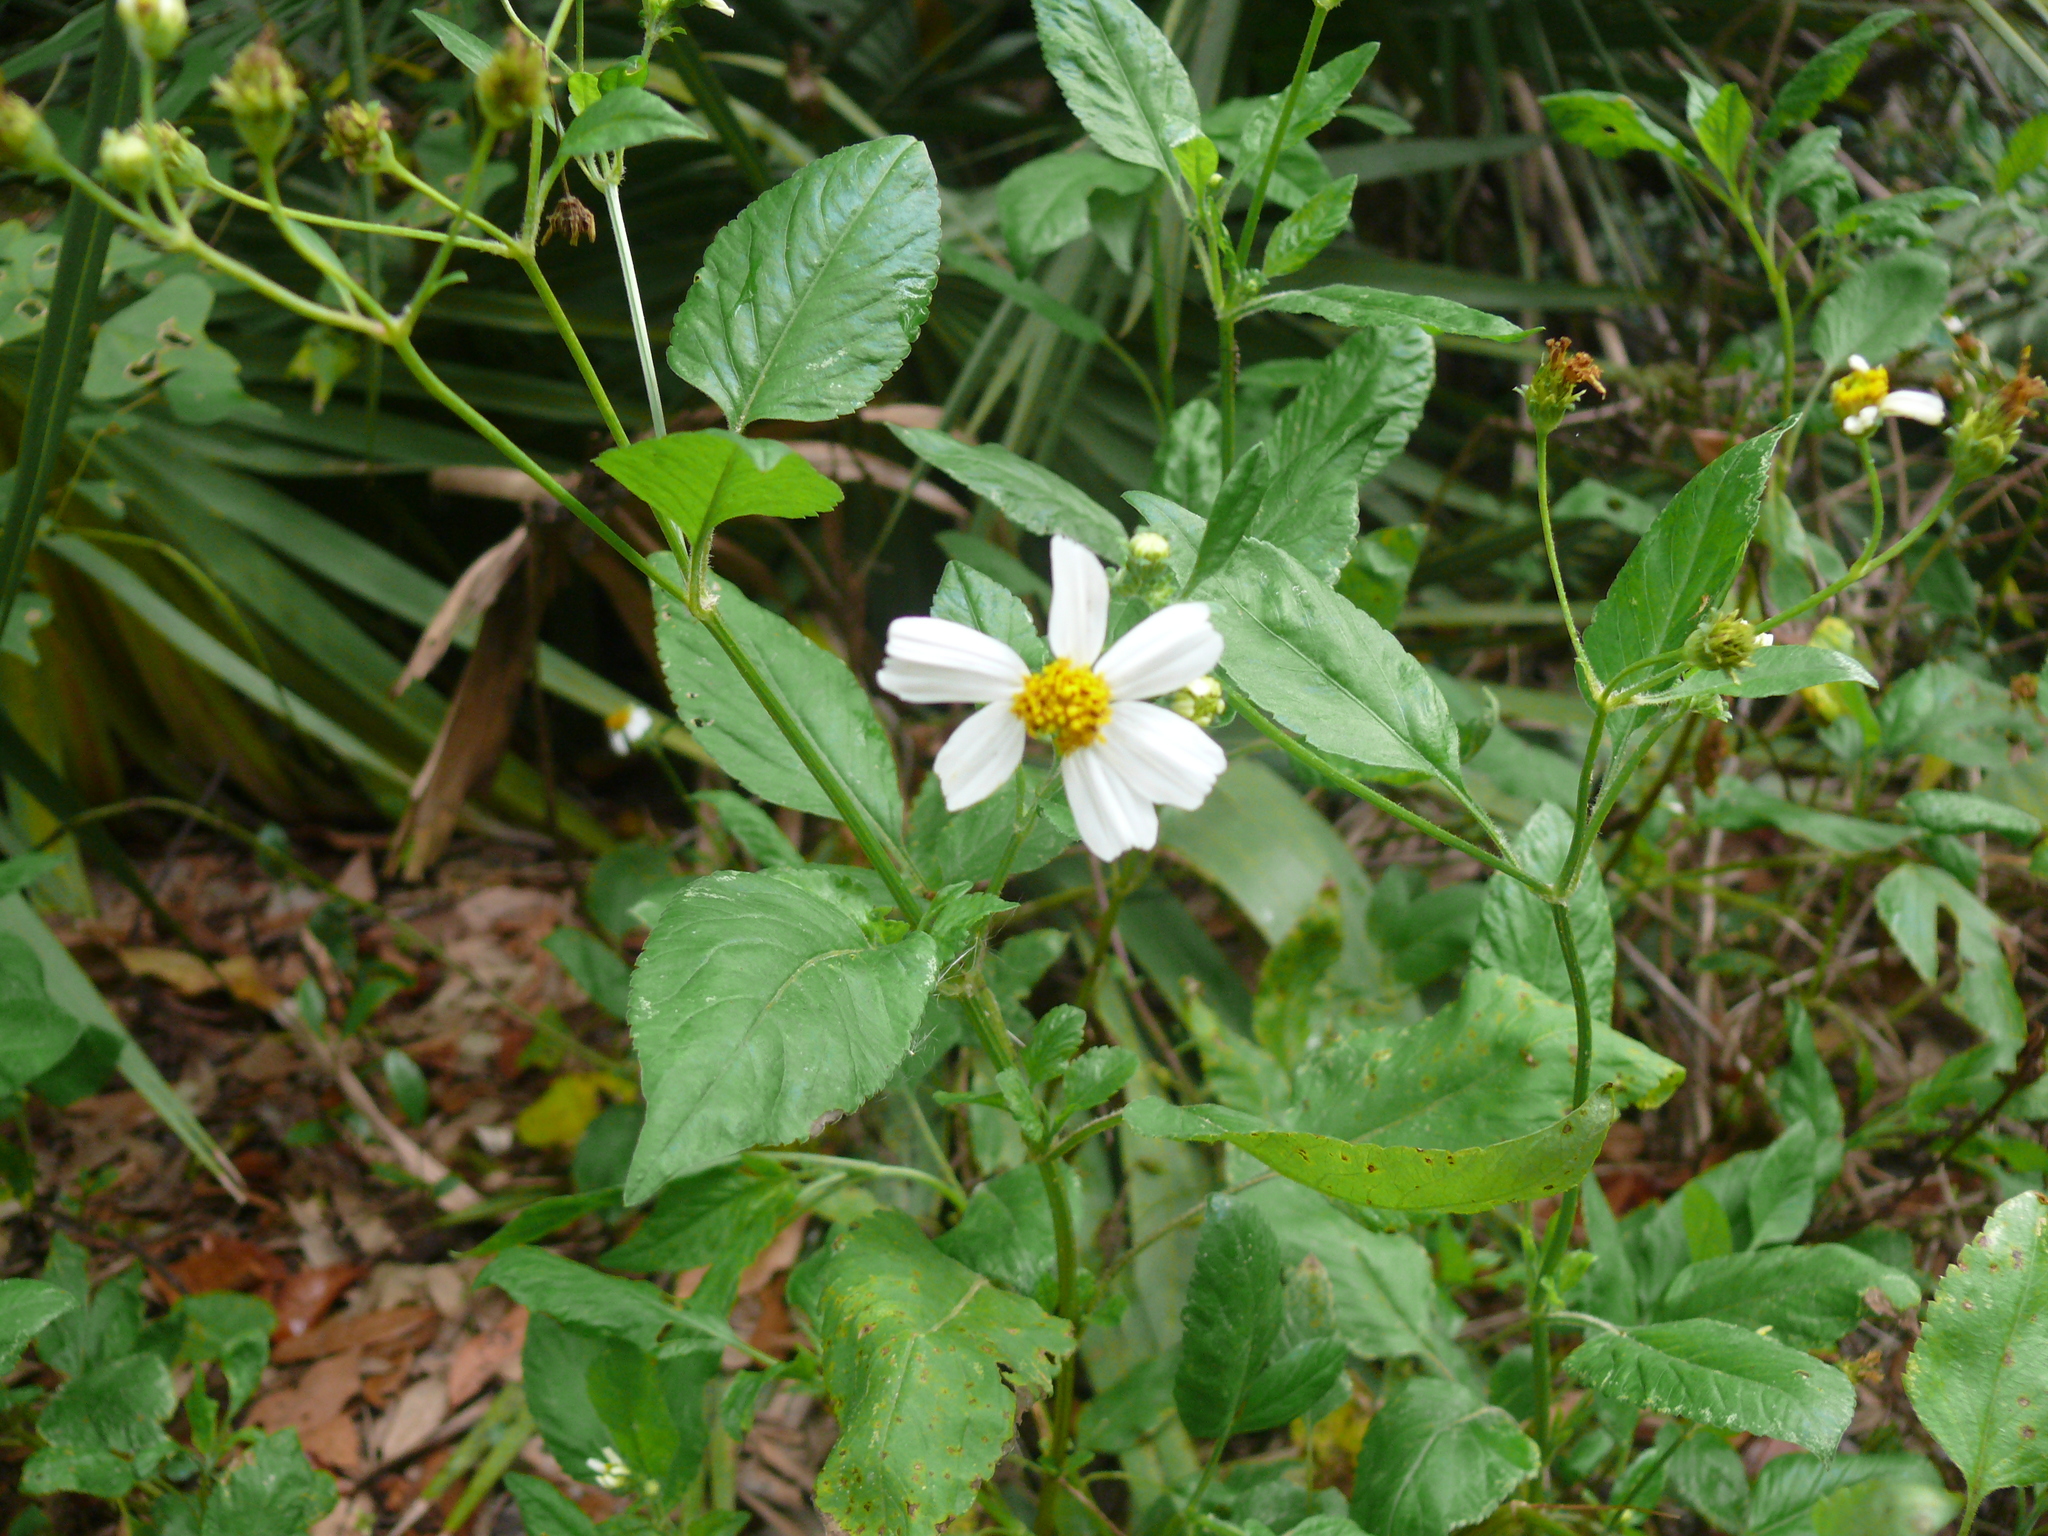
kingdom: Plantae
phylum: Tracheophyta
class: Magnoliopsida
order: Asterales
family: Asteraceae
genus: Bidens
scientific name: Bidens alba
